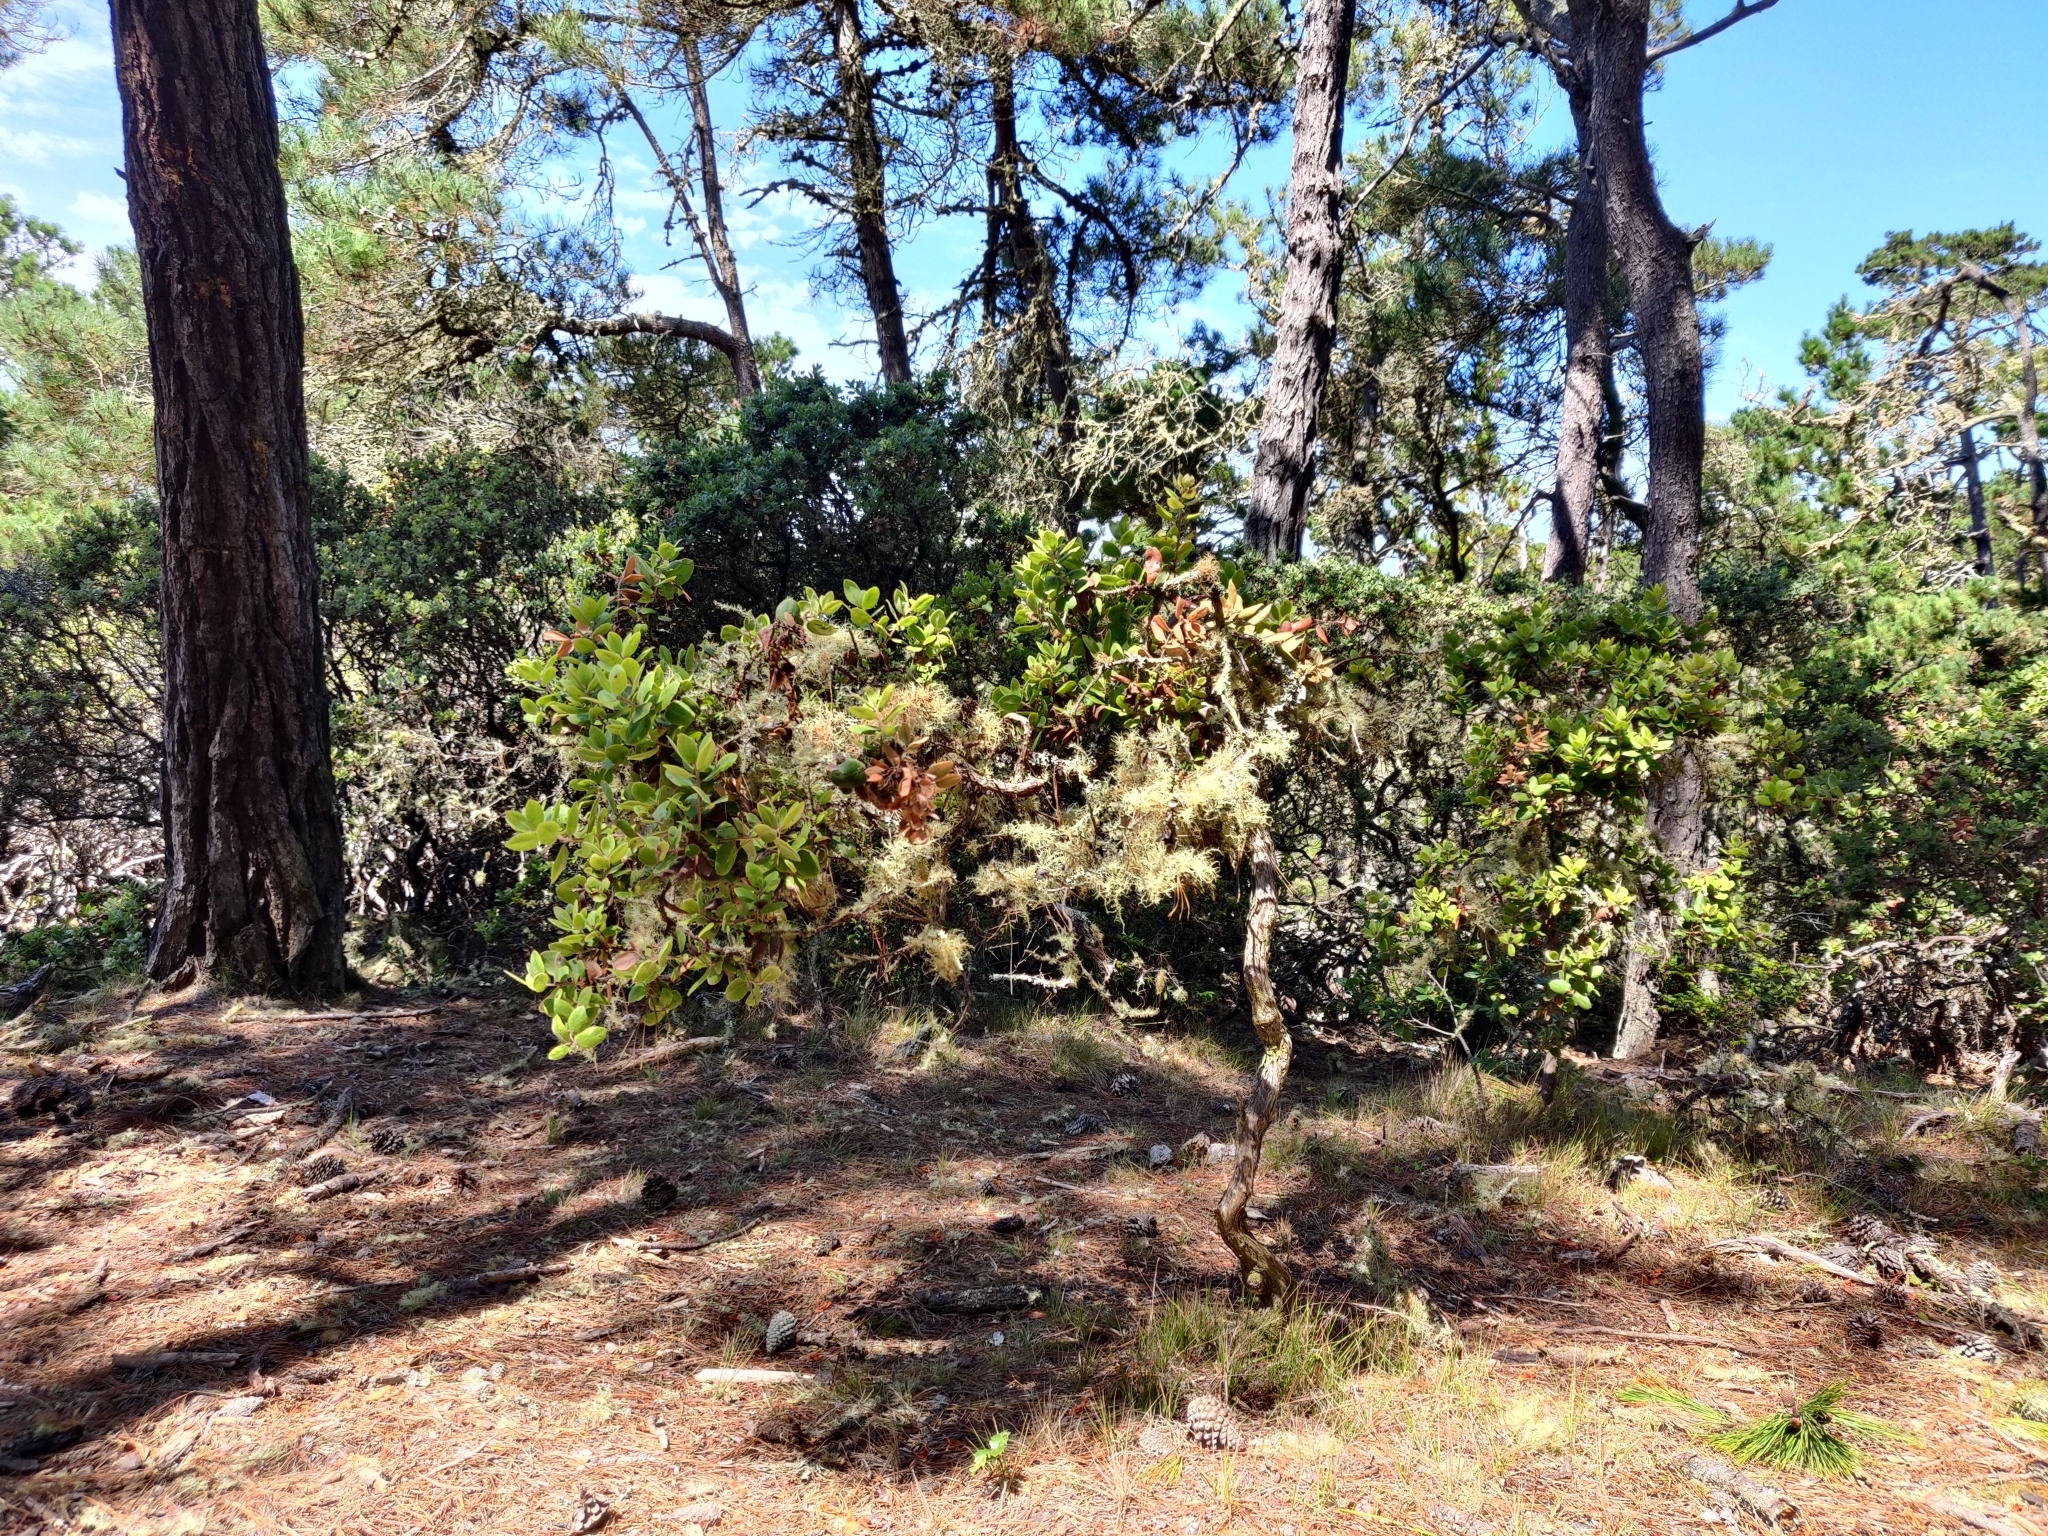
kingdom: Plantae
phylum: Tracheophyta
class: Magnoliopsida
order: Ericales
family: Ericaceae
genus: Arctostaphylos
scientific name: Arctostaphylos tomentosa
